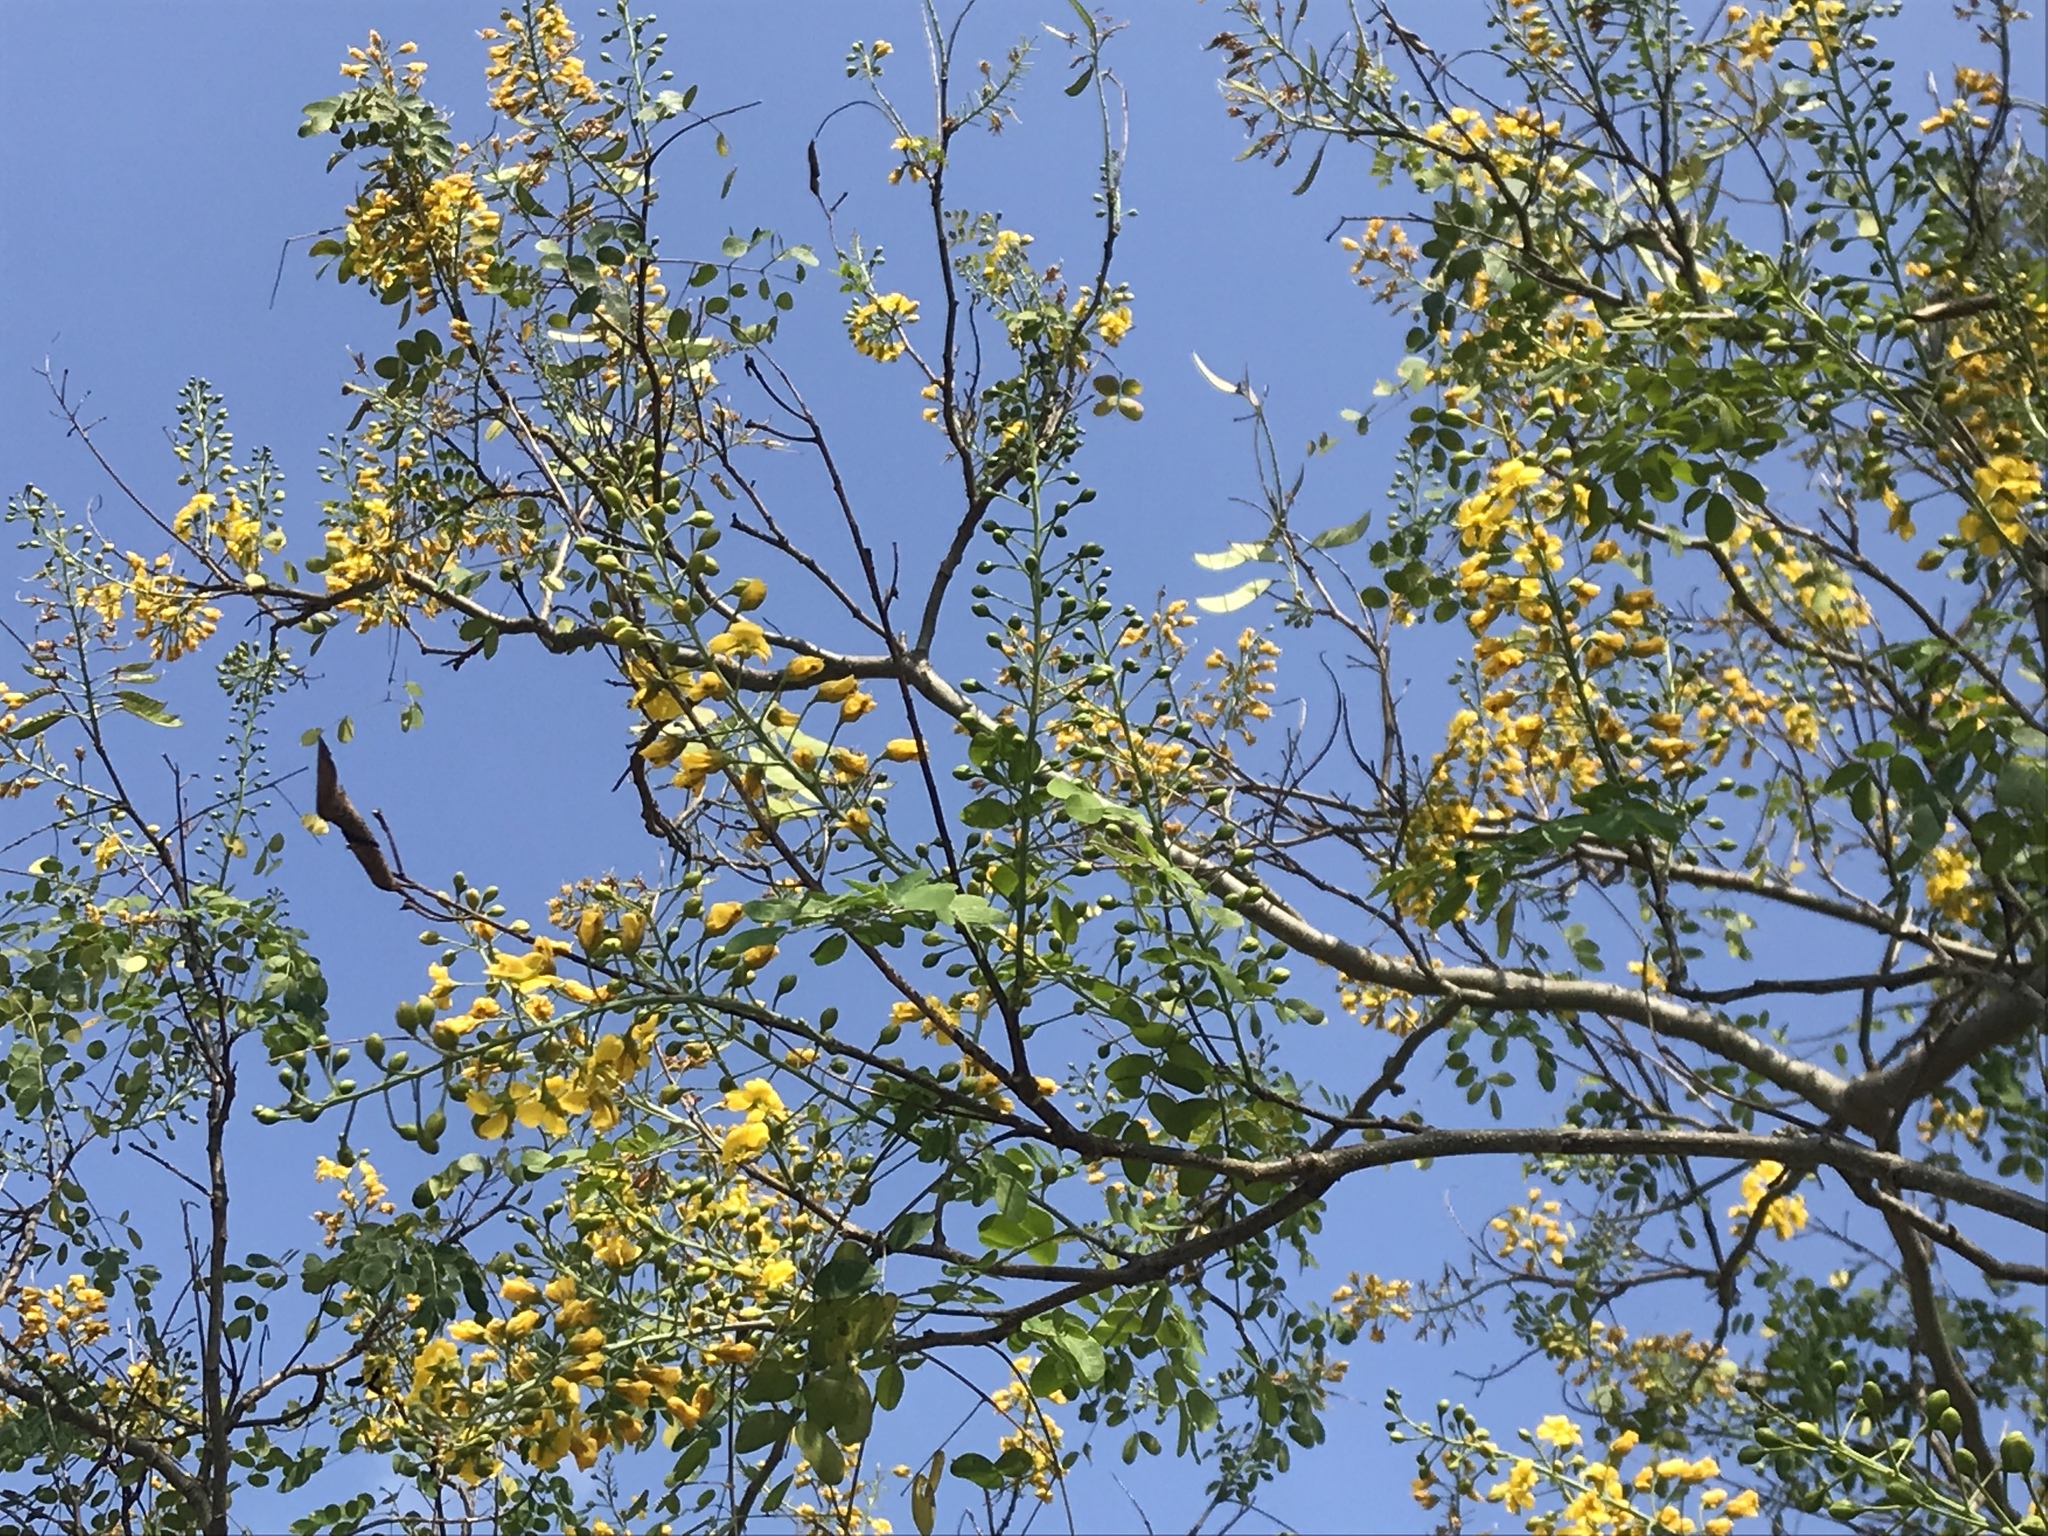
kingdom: Plantae
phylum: Tracheophyta
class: Magnoliopsida
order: Fabales
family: Fabaceae
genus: Erythrostemon
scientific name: Erythrostemon mexicanus
